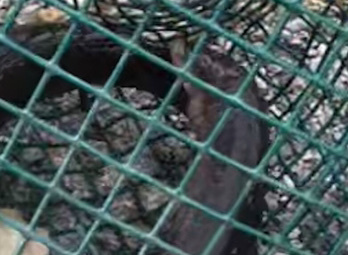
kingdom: Animalia
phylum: Chordata
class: Amphibia
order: Caudata
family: Amphiumidae
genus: Amphiuma
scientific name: Amphiuma tridactylum
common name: Three-toed amphiuma
